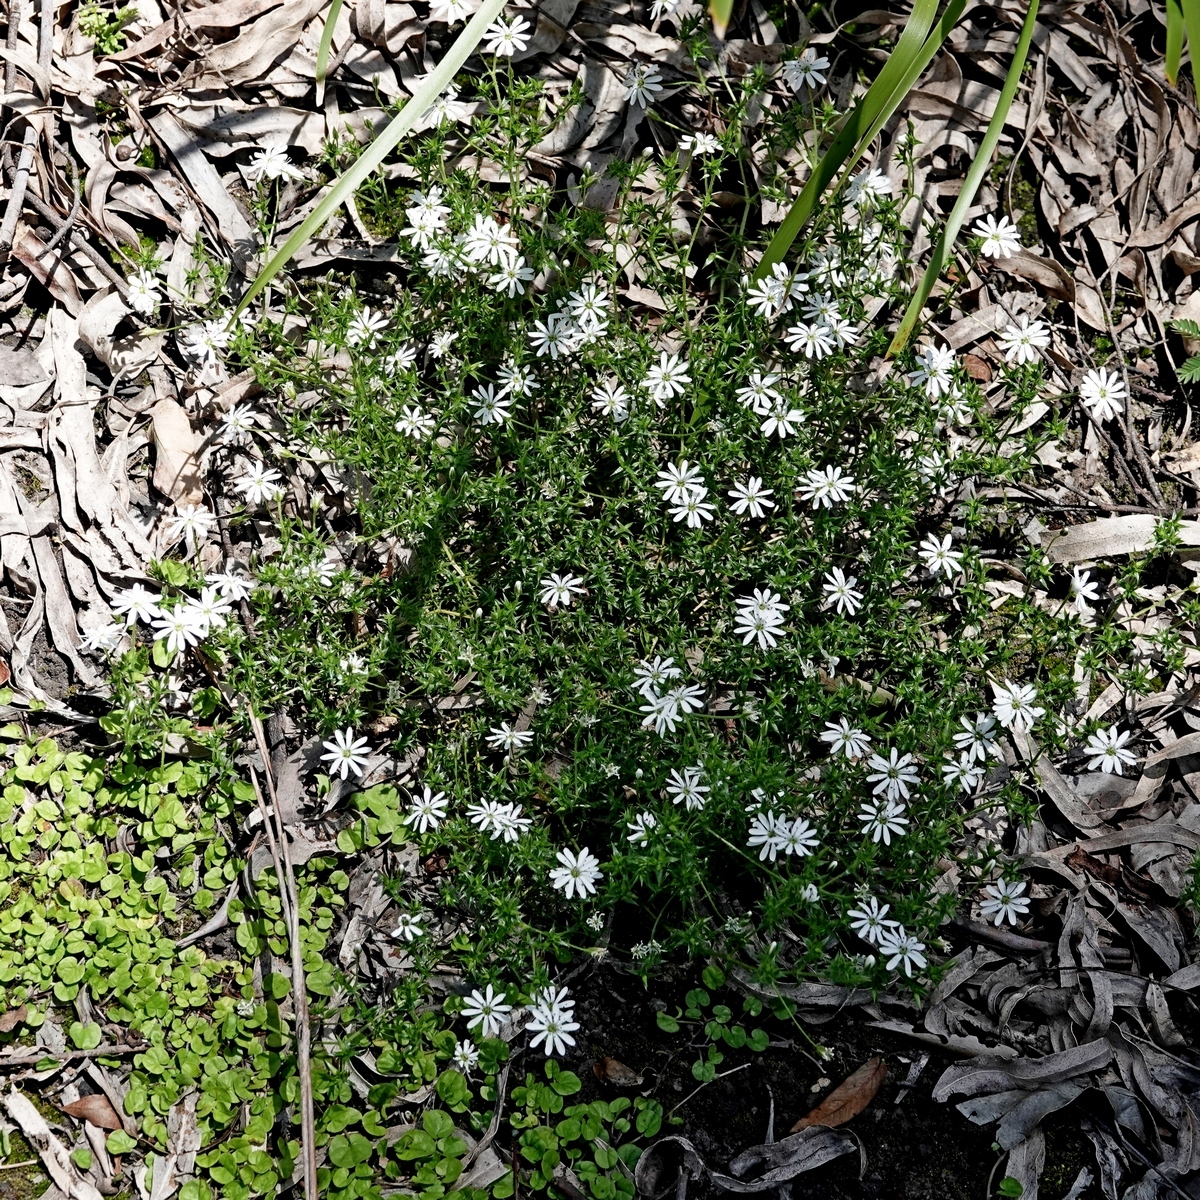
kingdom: Plantae
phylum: Tracheophyta
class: Magnoliopsida
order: Caryophyllales
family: Caryophyllaceae
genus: Stellaria
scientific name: Stellaria pungens
